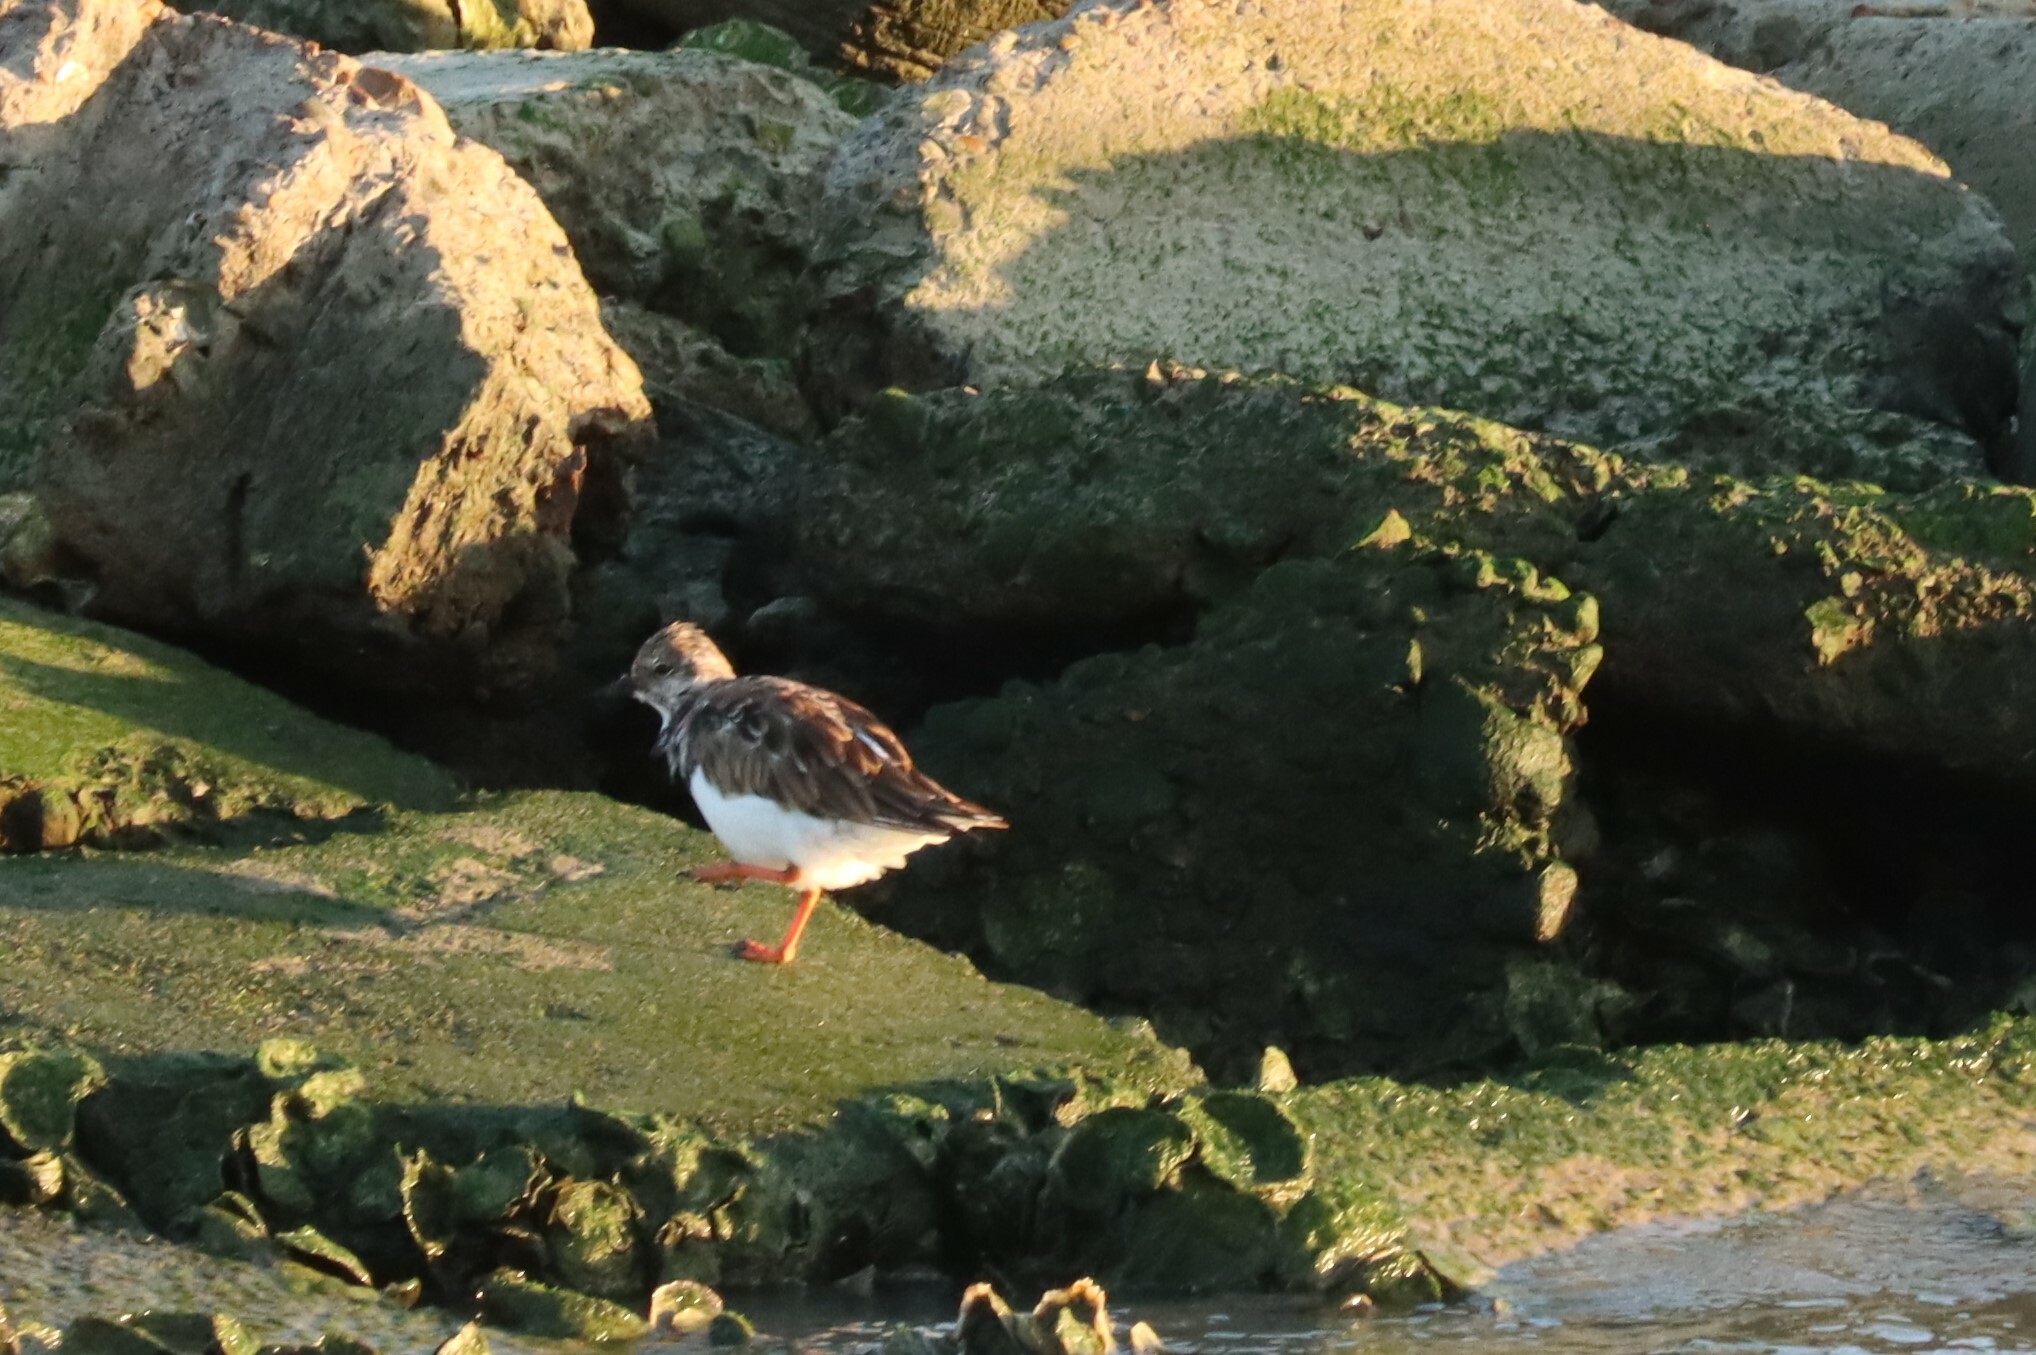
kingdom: Animalia
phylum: Chordata
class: Aves
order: Charadriiformes
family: Scolopacidae
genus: Arenaria
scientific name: Arenaria interpres
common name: Ruddy turnstone
